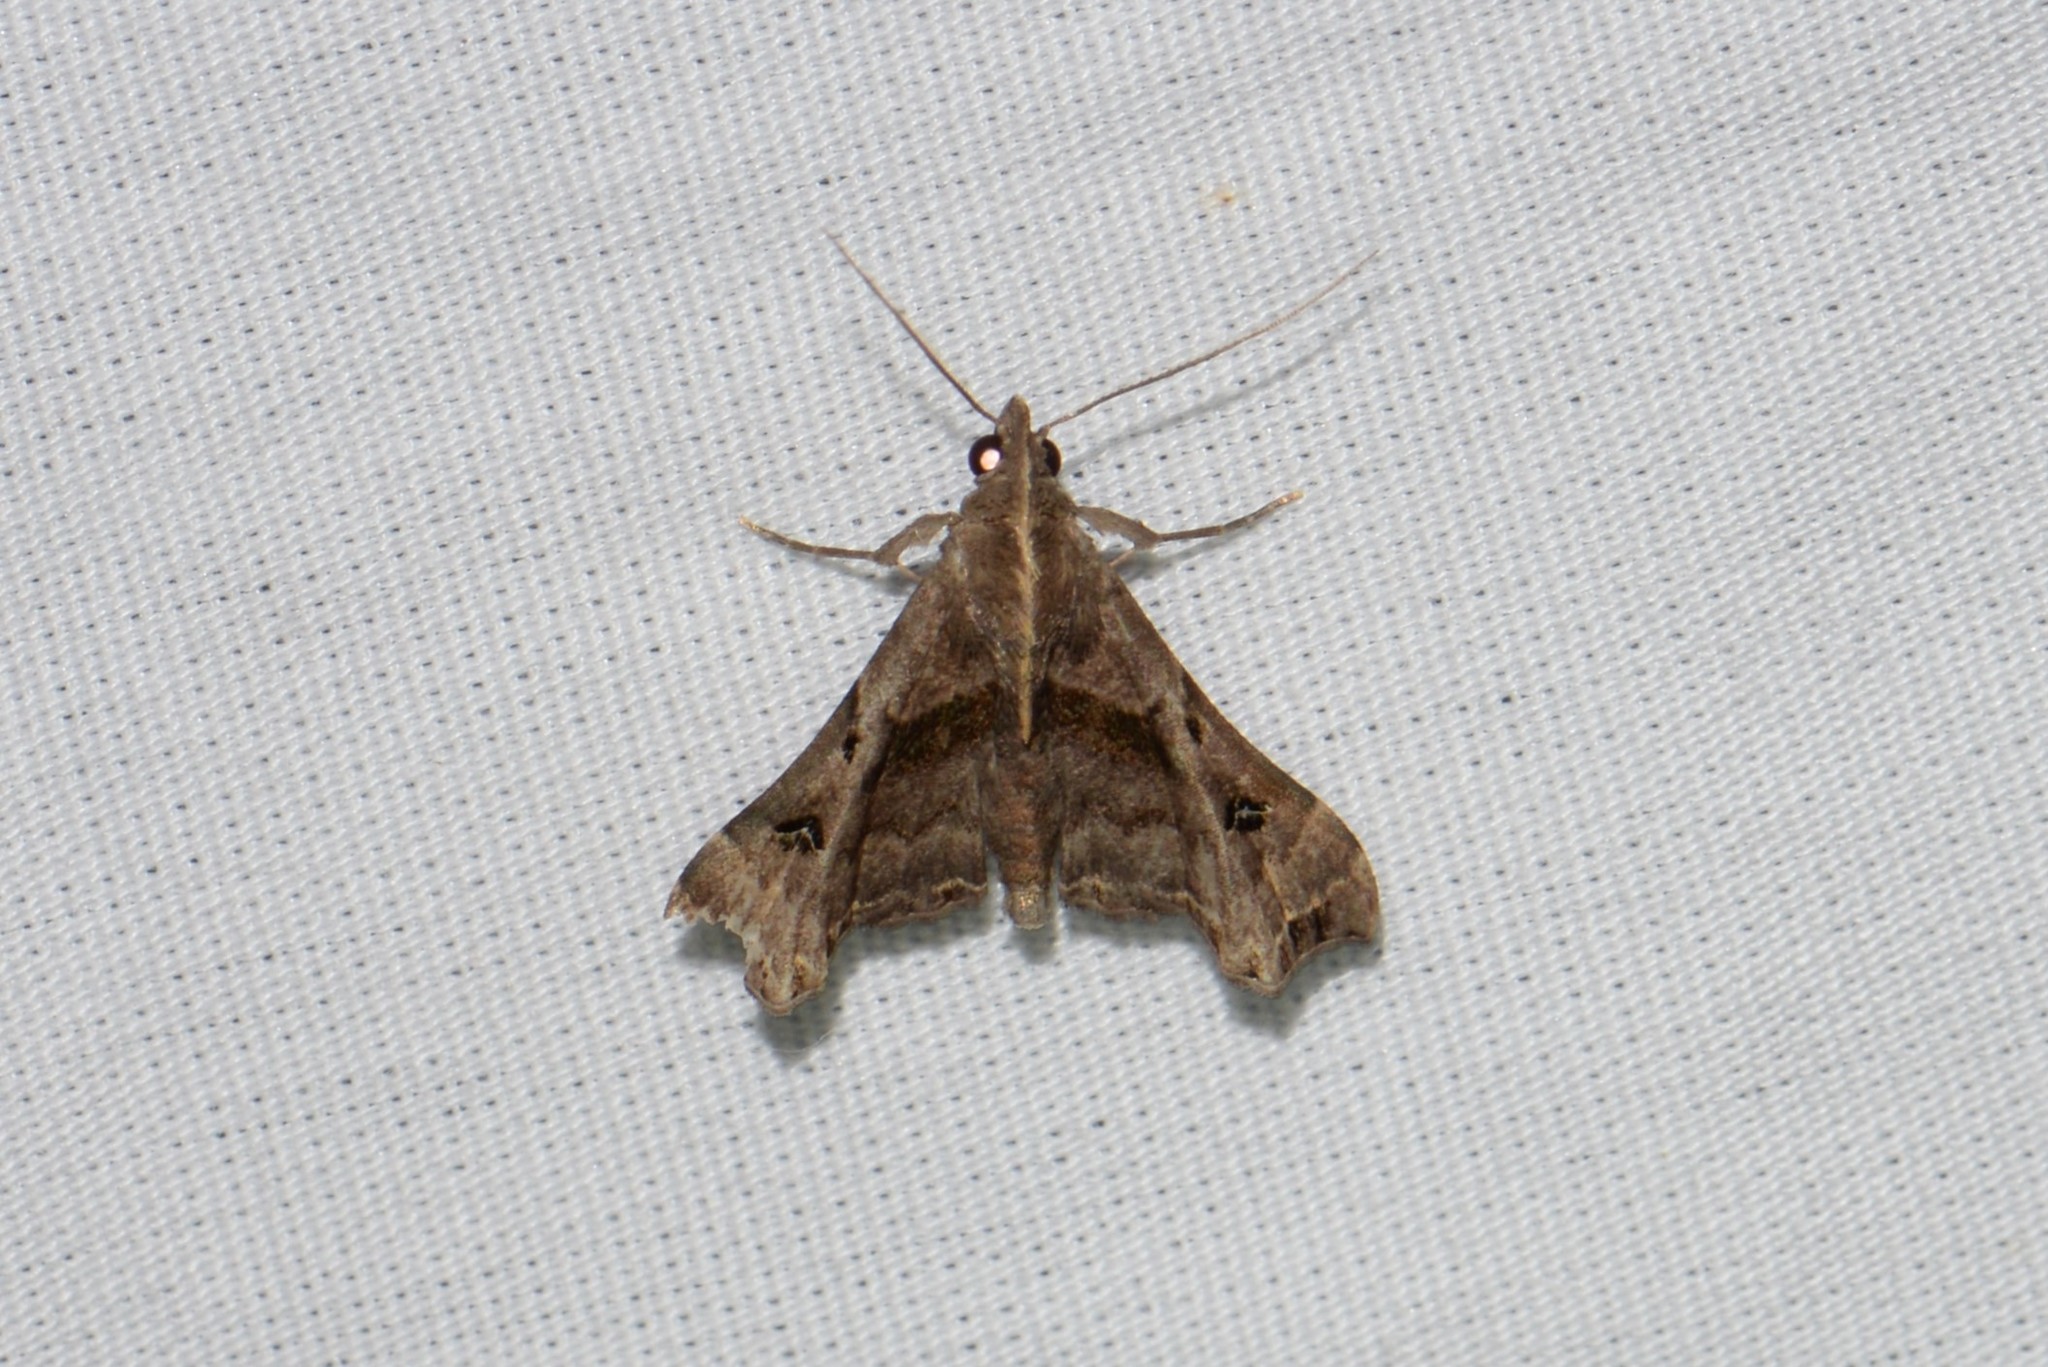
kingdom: Animalia
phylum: Arthropoda
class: Insecta
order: Lepidoptera
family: Erebidae
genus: Palthis
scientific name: Palthis asopialis
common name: Faint-spotted palthis moth
